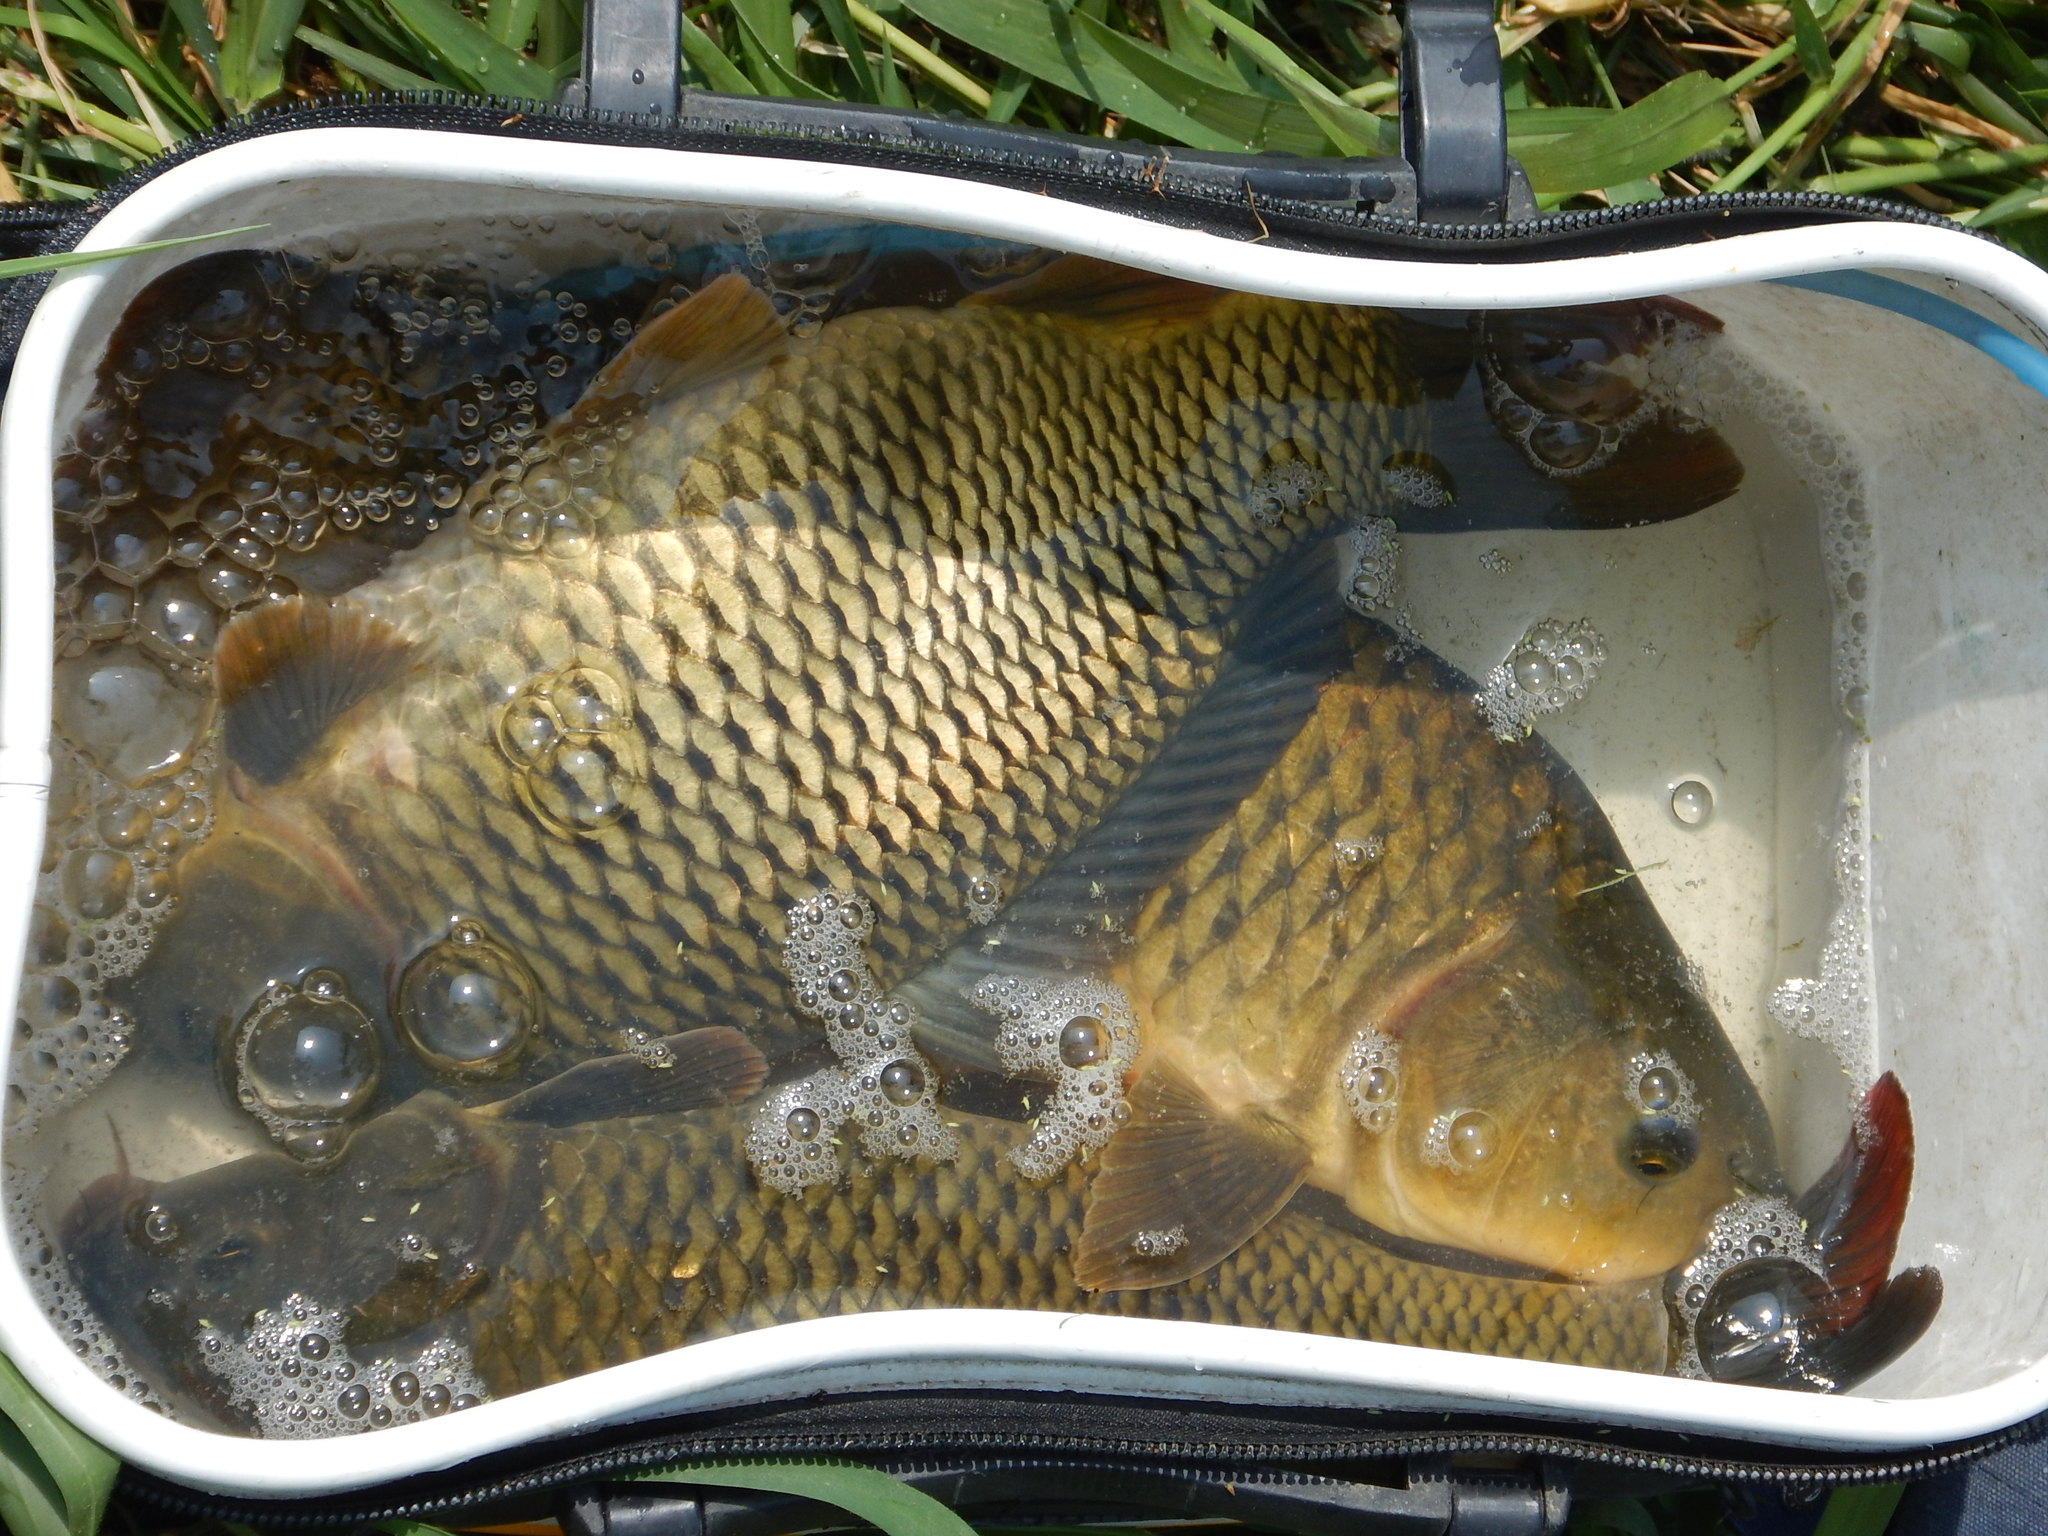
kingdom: Animalia
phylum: Chordata
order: Cypriniformes
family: Cyprinidae
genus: Cyprinus
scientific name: Cyprinus carpio
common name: Common carp
